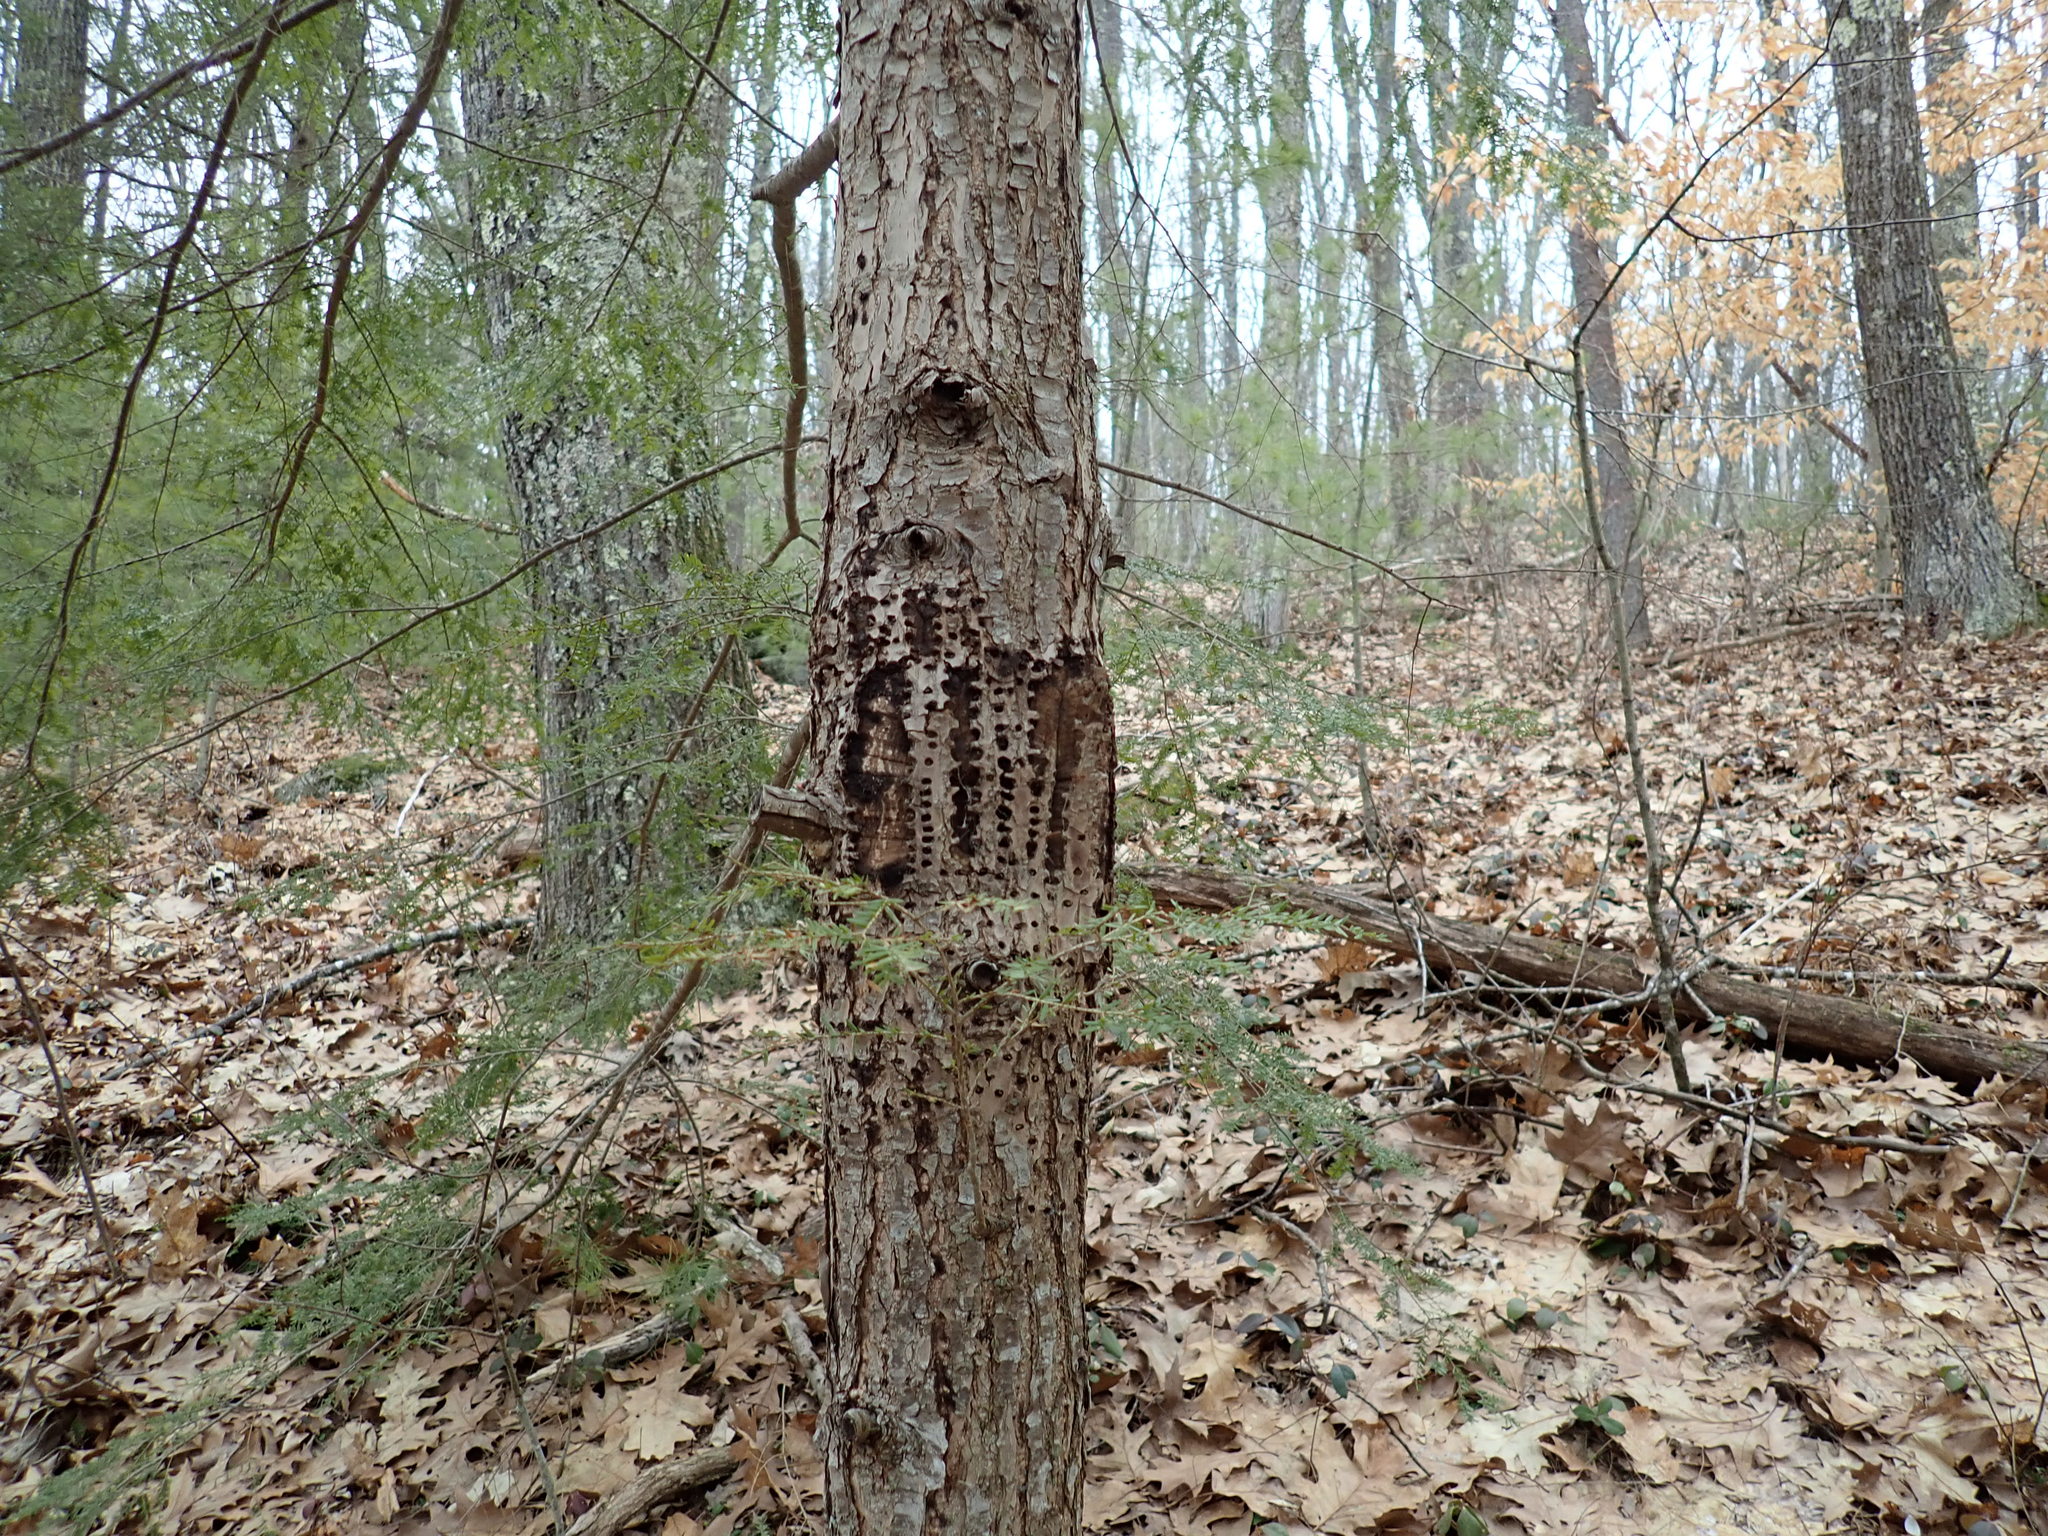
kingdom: Animalia
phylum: Chordata
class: Aves
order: Piciformes
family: Picidae
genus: Sphyrapicus
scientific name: Sphyrapicus varius
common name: Yellow-bellied sapsucker
